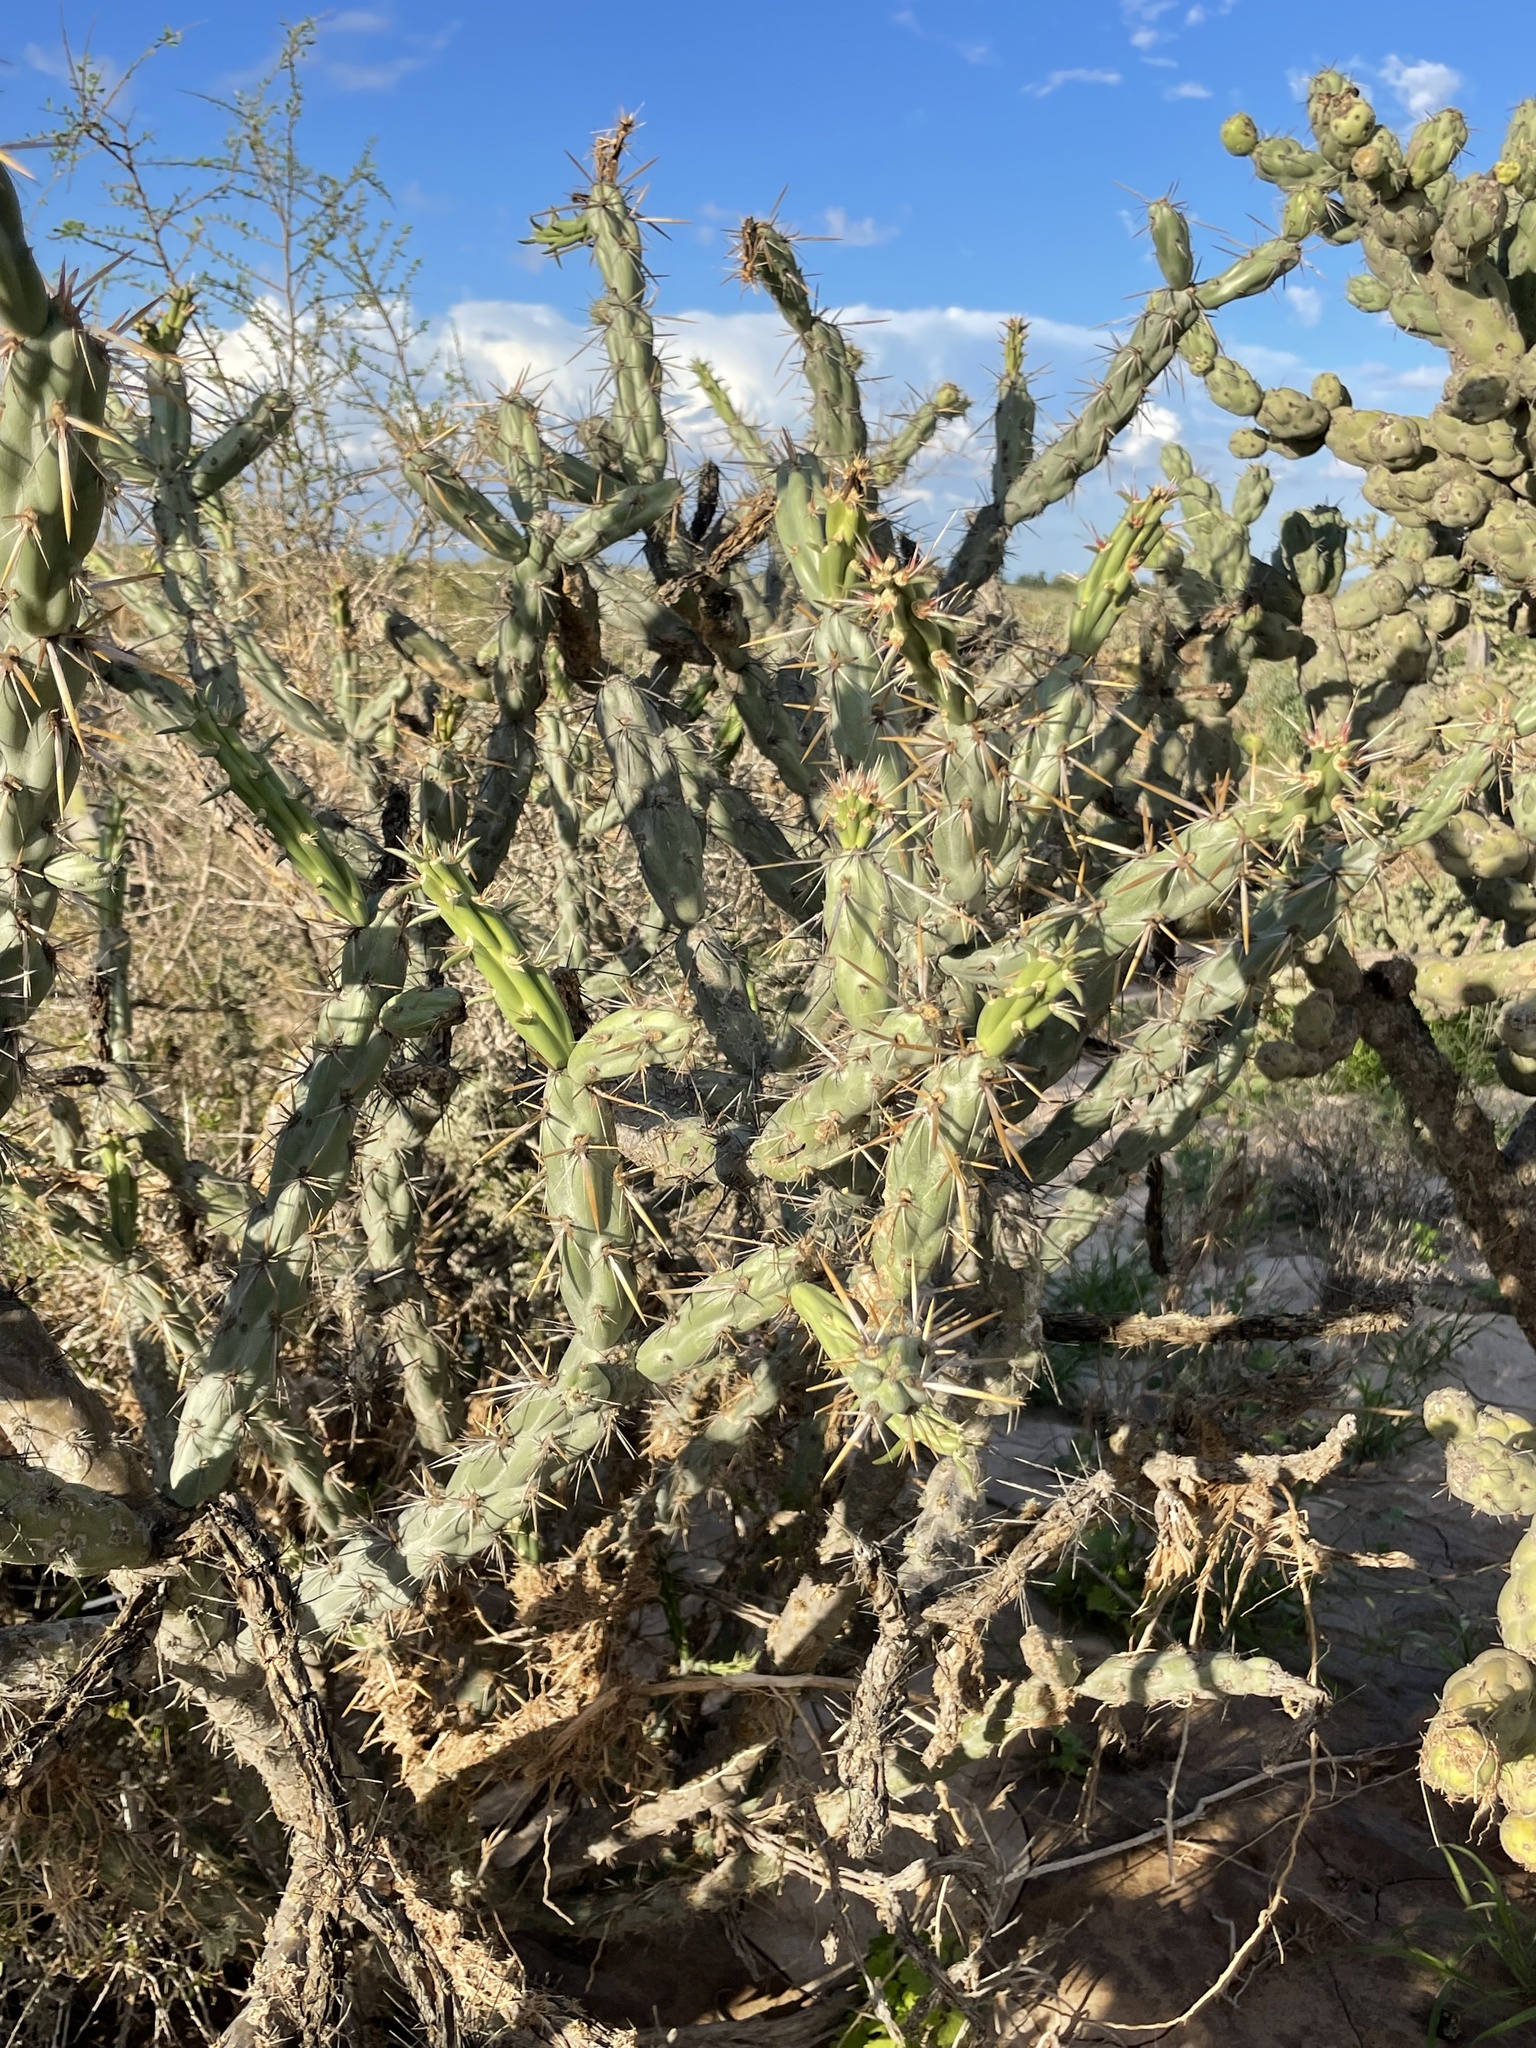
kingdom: Plantae
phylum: Tracheophyta
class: Magnoliopsida
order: Caryophyllales
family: Cactaceae
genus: Cylindropuntia
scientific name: Cylindropuntia molesta
